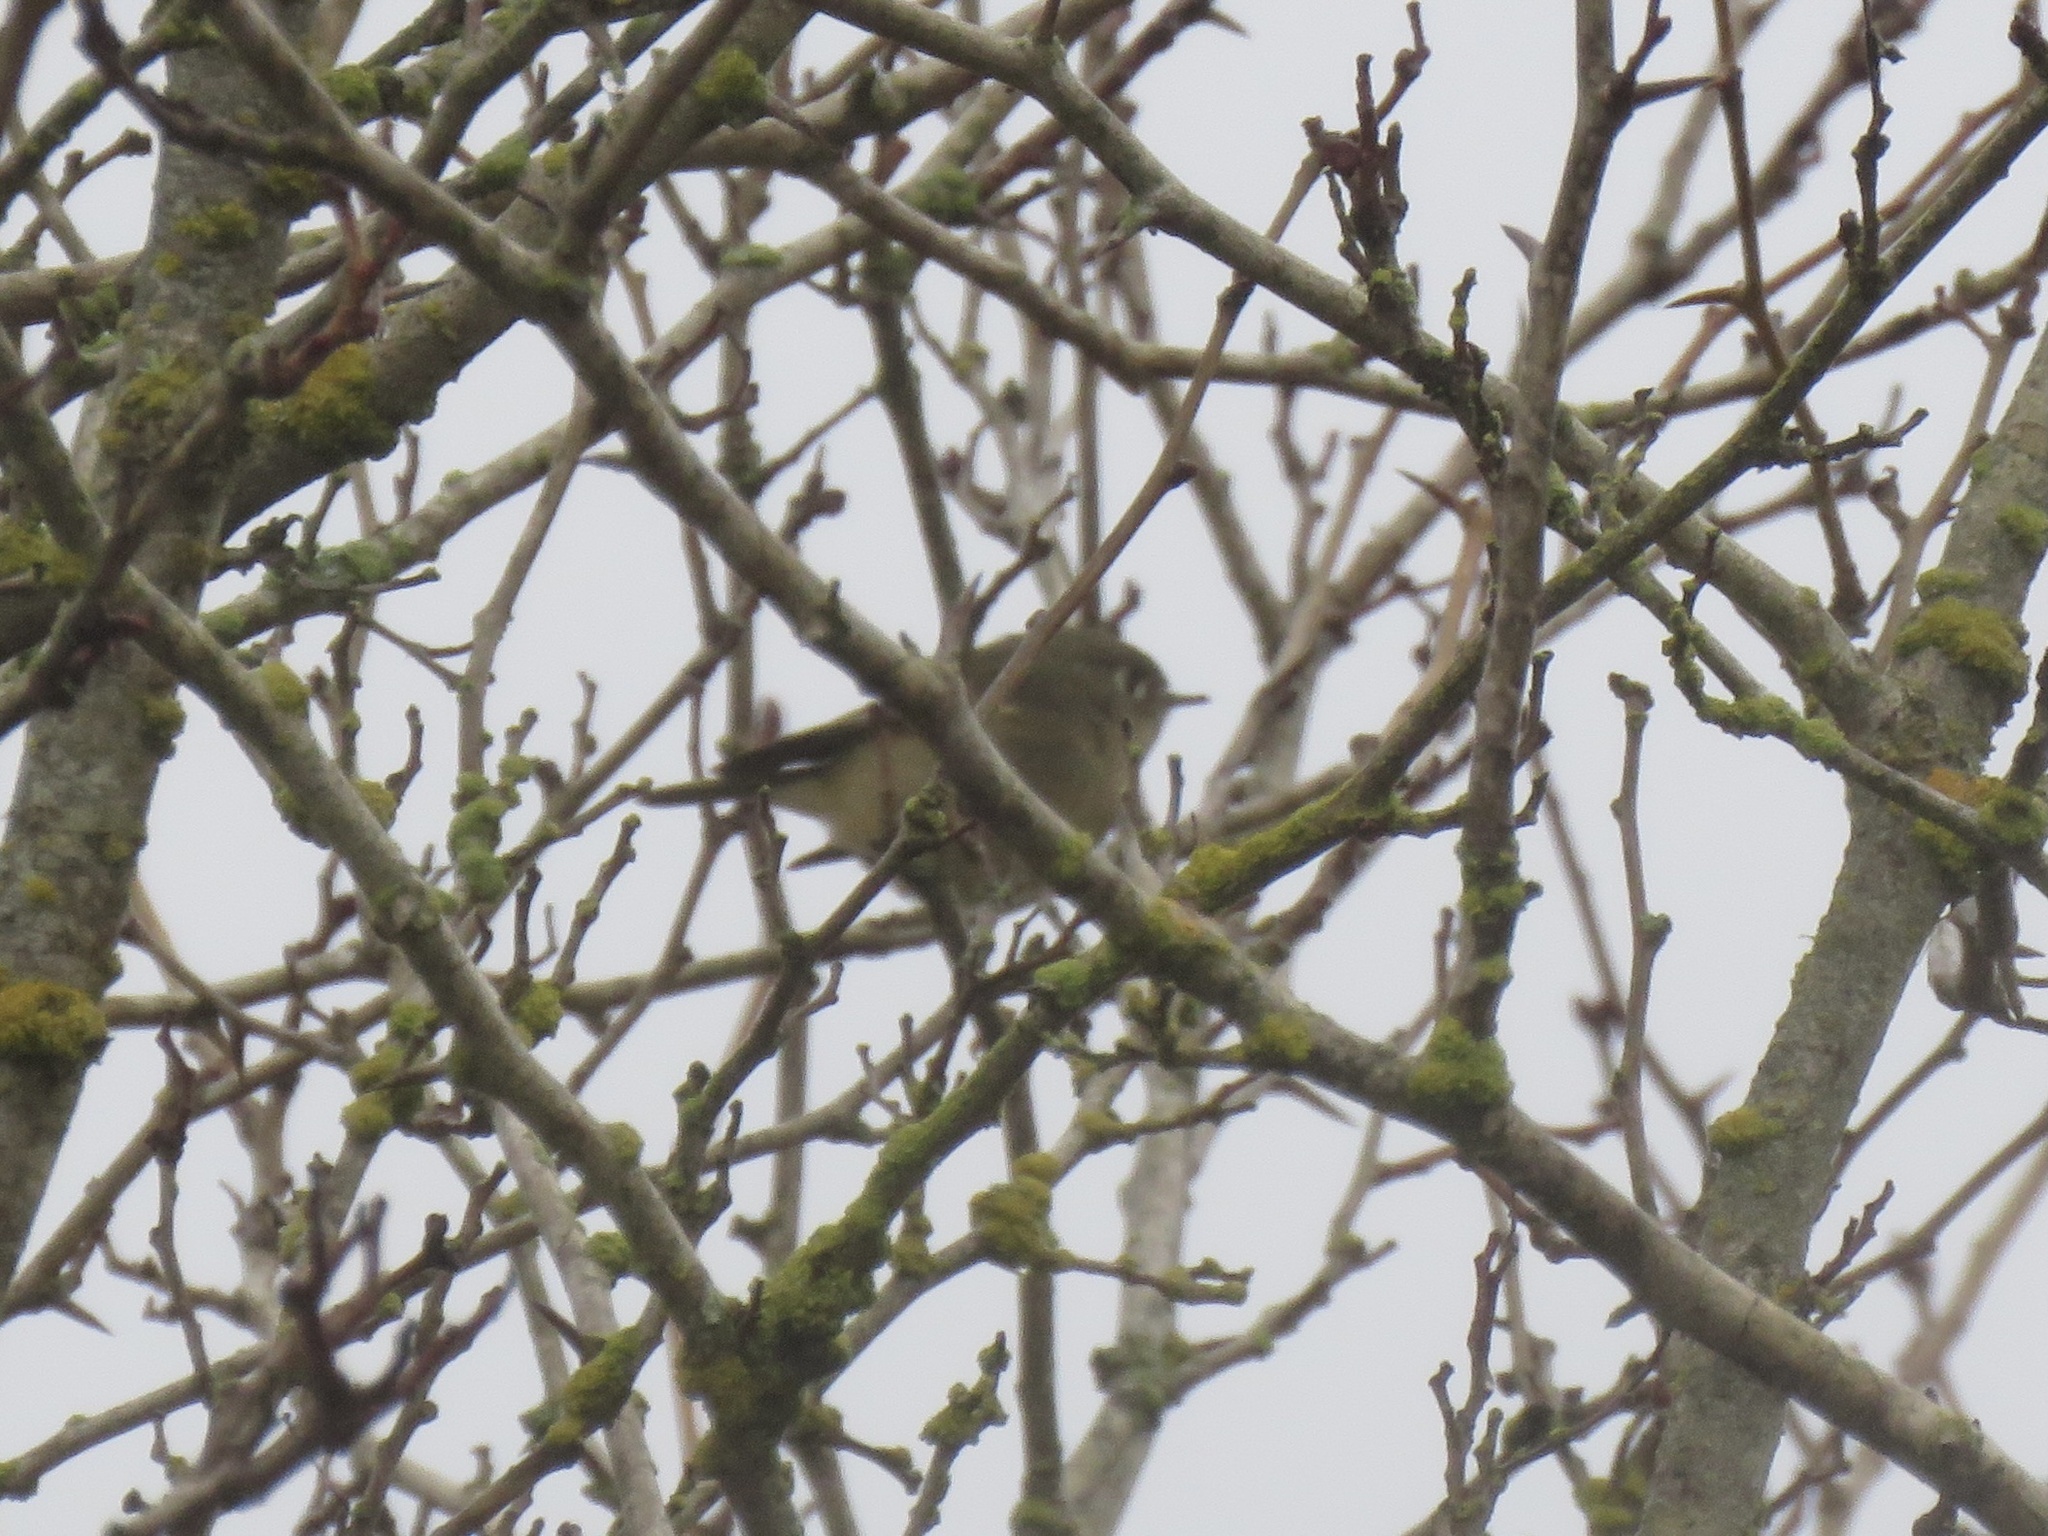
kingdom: Animalia
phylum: Chordata
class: Aves
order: Passeriformes
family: Regulidae
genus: Regulus
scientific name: Regulus calendula
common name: Ruby-crowned kinglet
